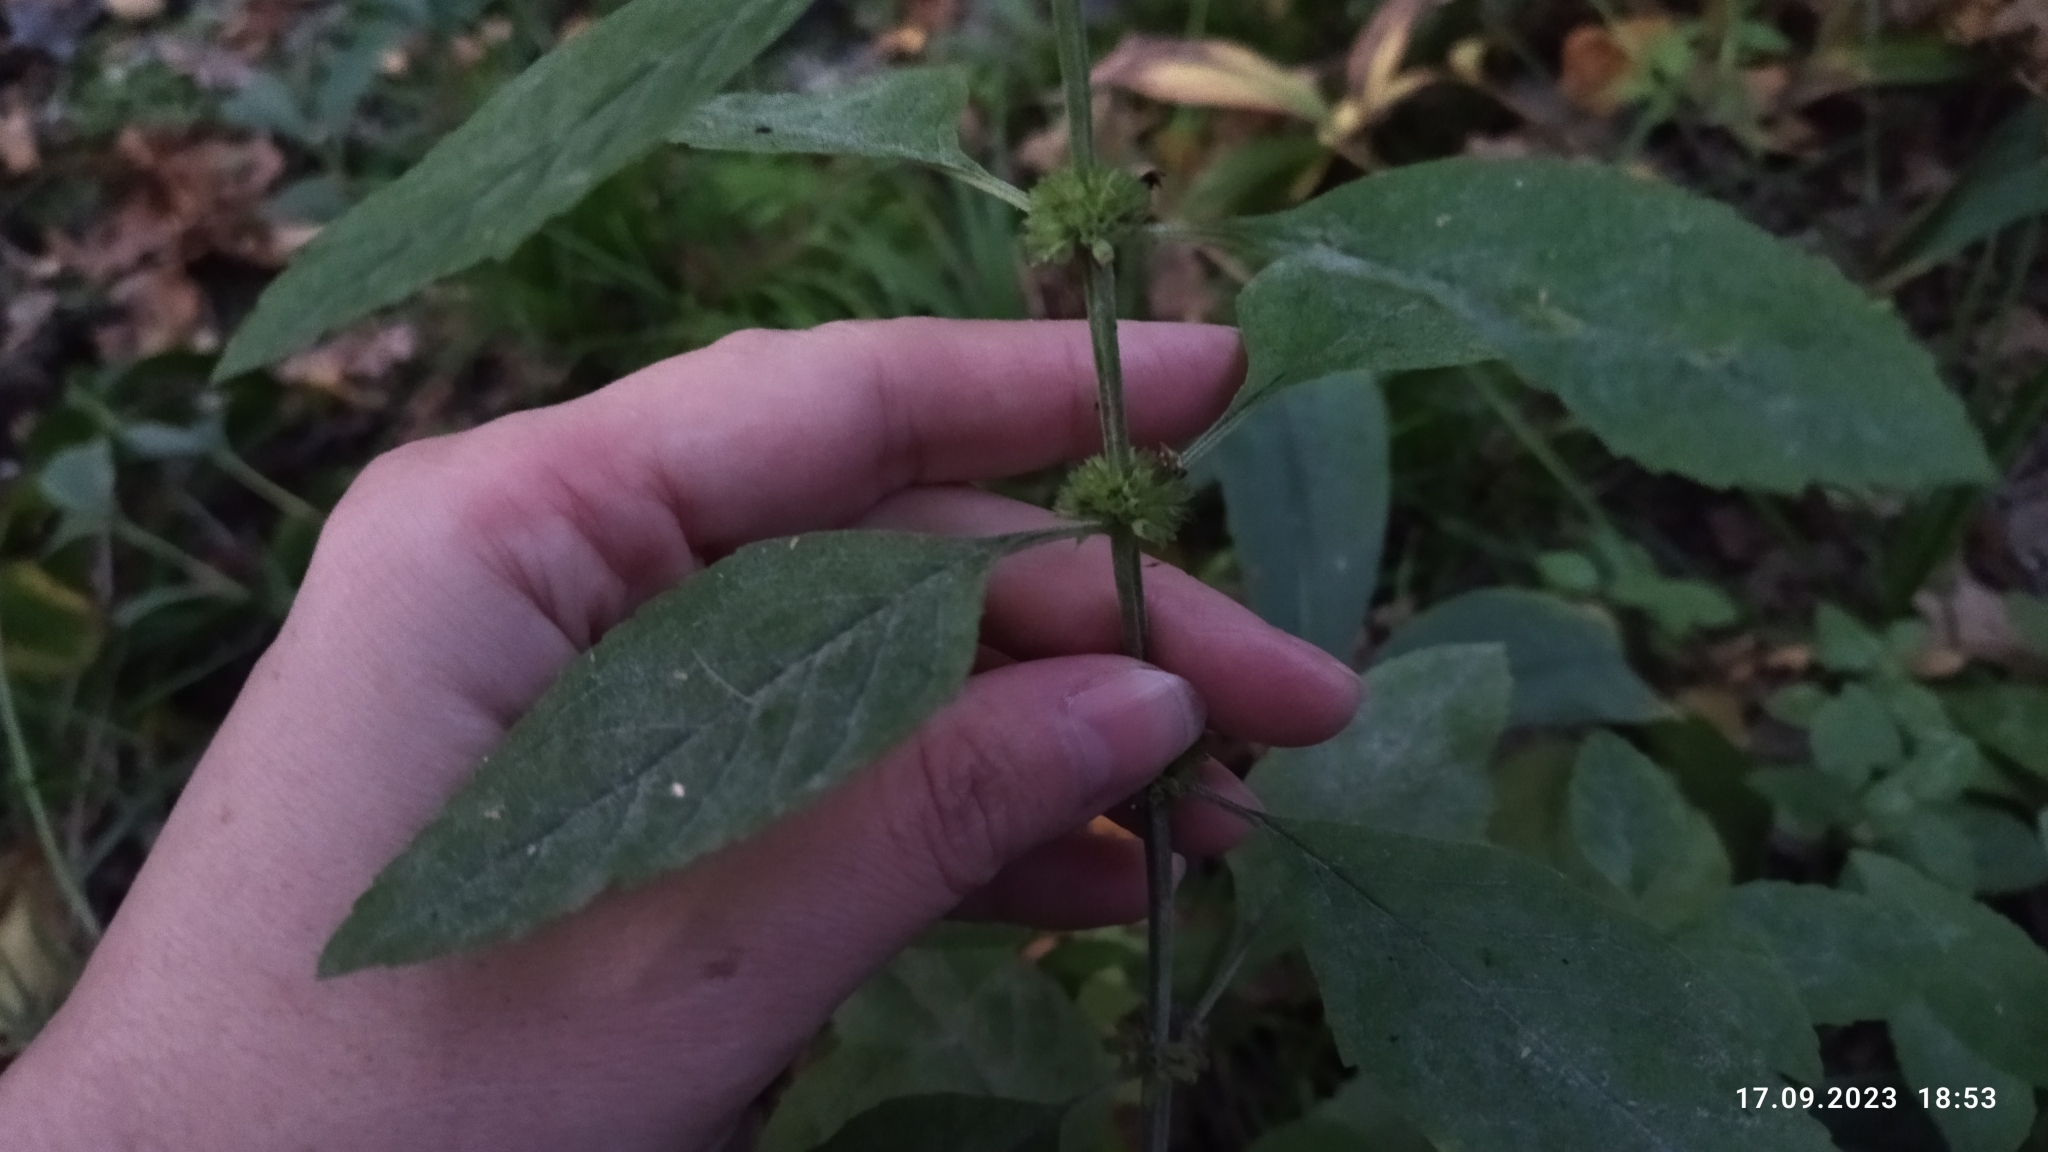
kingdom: Plantae
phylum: Tracheophyta
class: Magnoliopsida
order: Lamiales
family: Lamiaceae
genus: Mentha
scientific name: Mentha arvensis
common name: Corn mint
